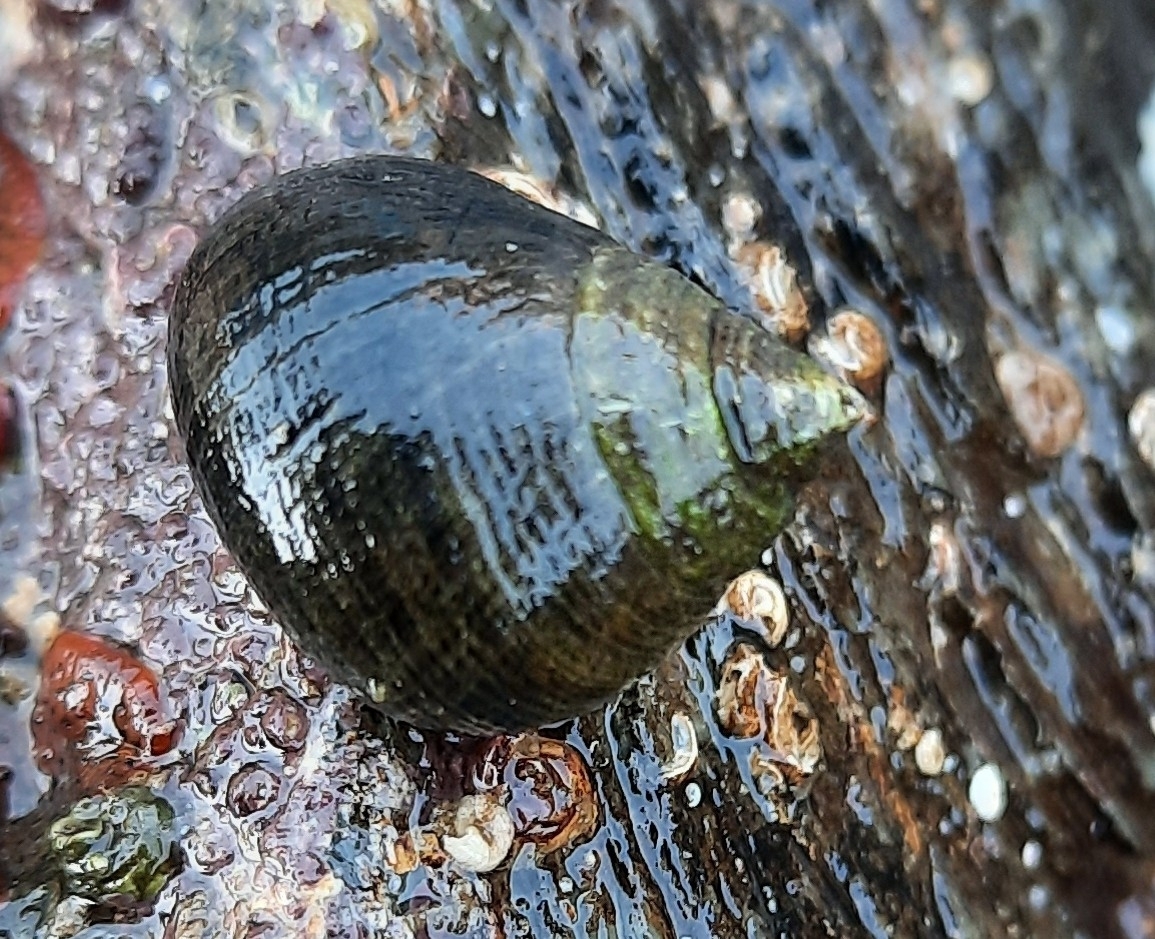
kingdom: Animalia
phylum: Mollusca
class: Gastropoda
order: Littorinimorpha
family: Littorinidae
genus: Littorina
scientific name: Littorina littorea
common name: Common periwinkle
